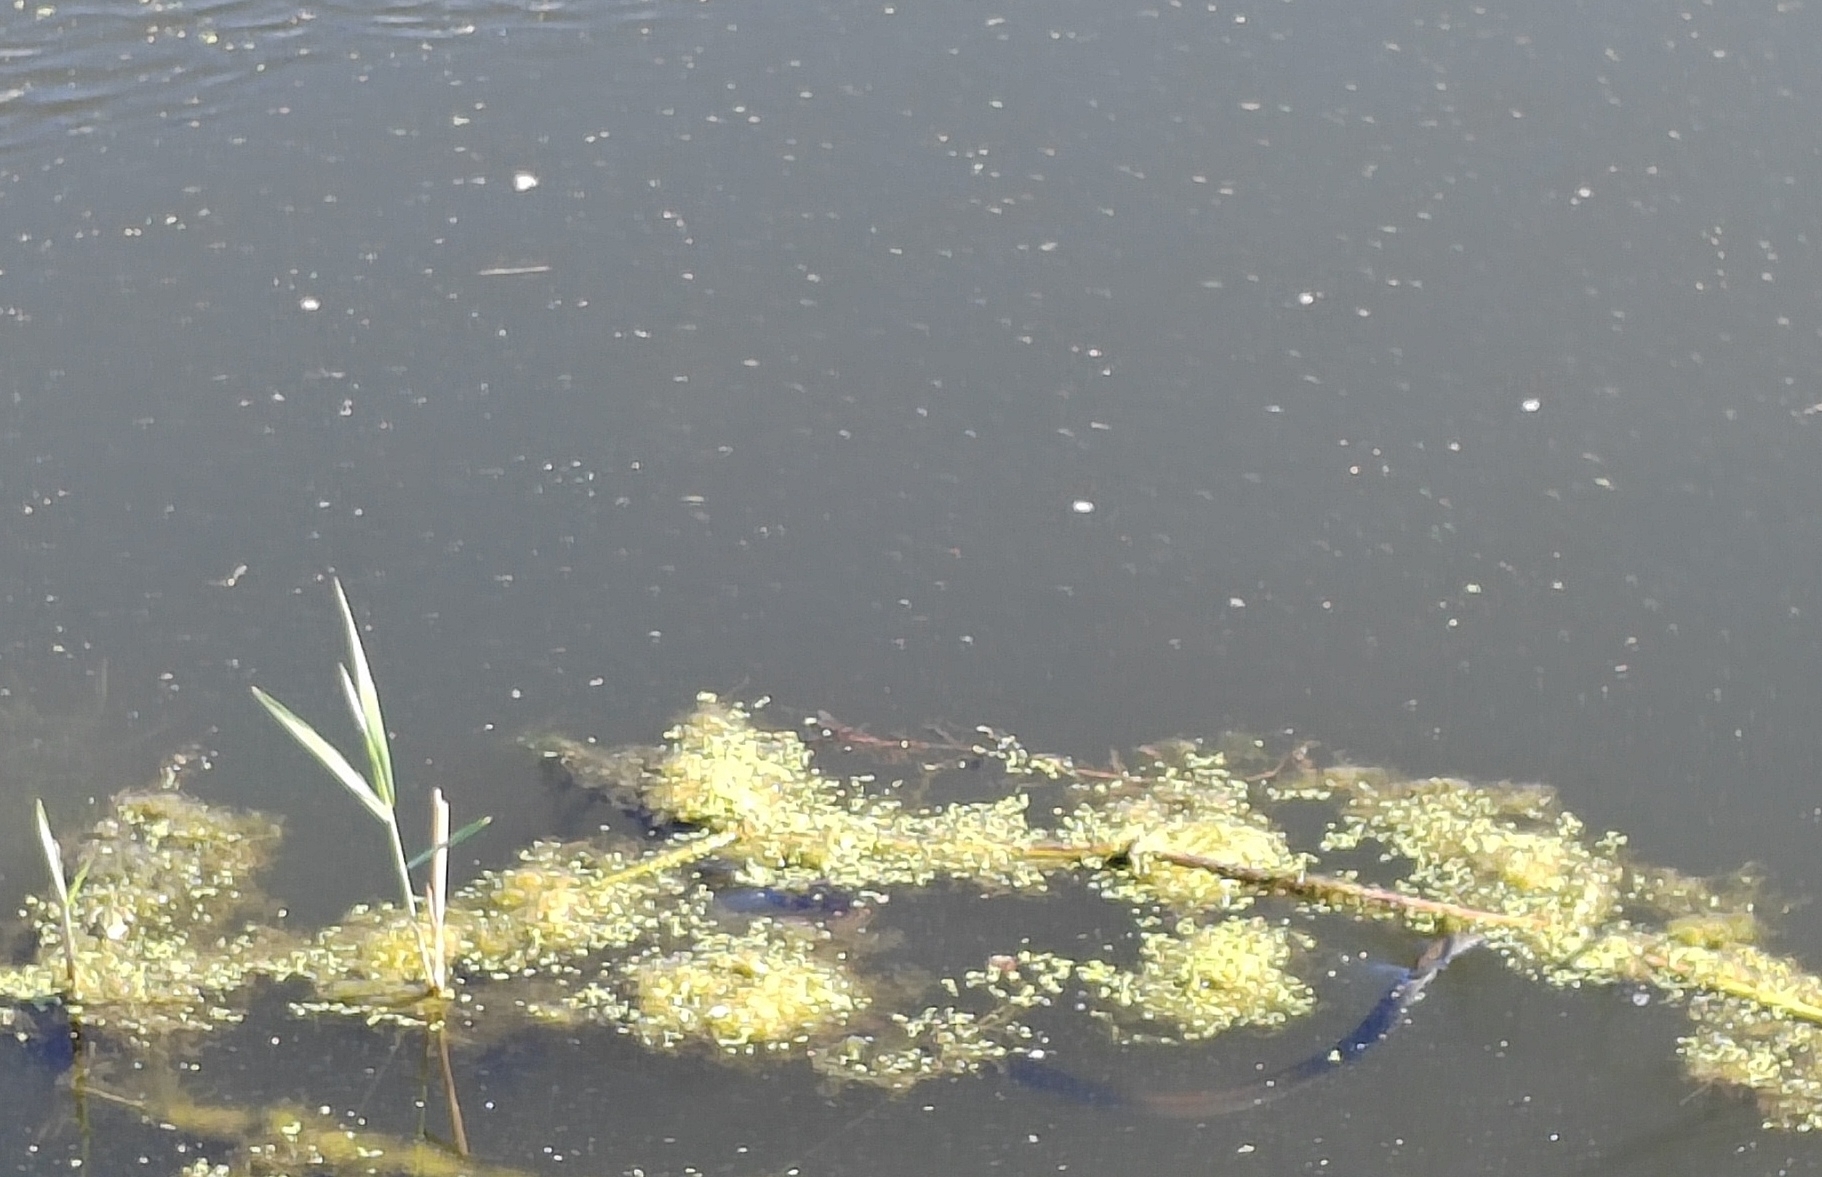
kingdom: Animalia
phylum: Chordata
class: Squamata
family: Colubridae
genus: Natrix
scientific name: Natrix tessellata
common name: Dice snake
